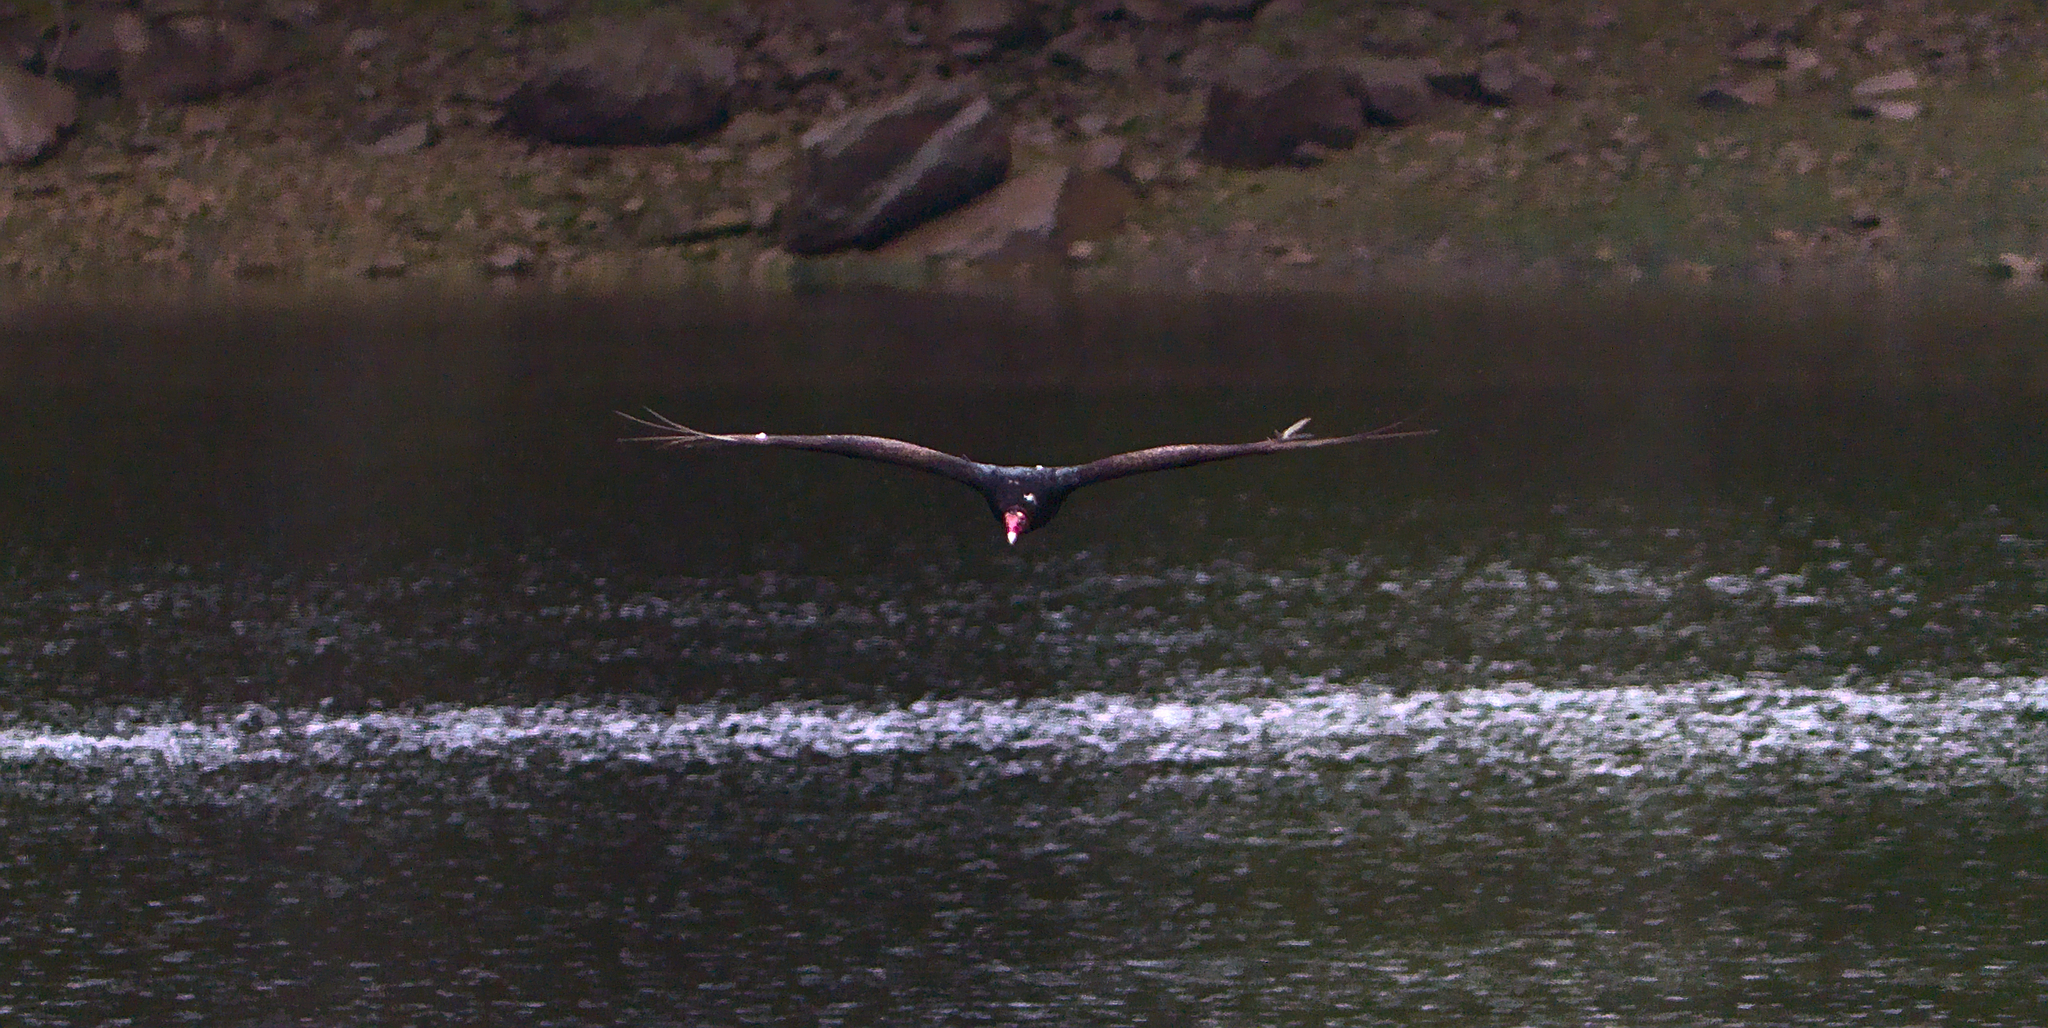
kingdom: Animalia
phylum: Chordata
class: Aves
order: Accipitriformes
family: Cathartidae
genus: Cathartes
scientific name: Cathartes aura
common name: Turkey vulture
